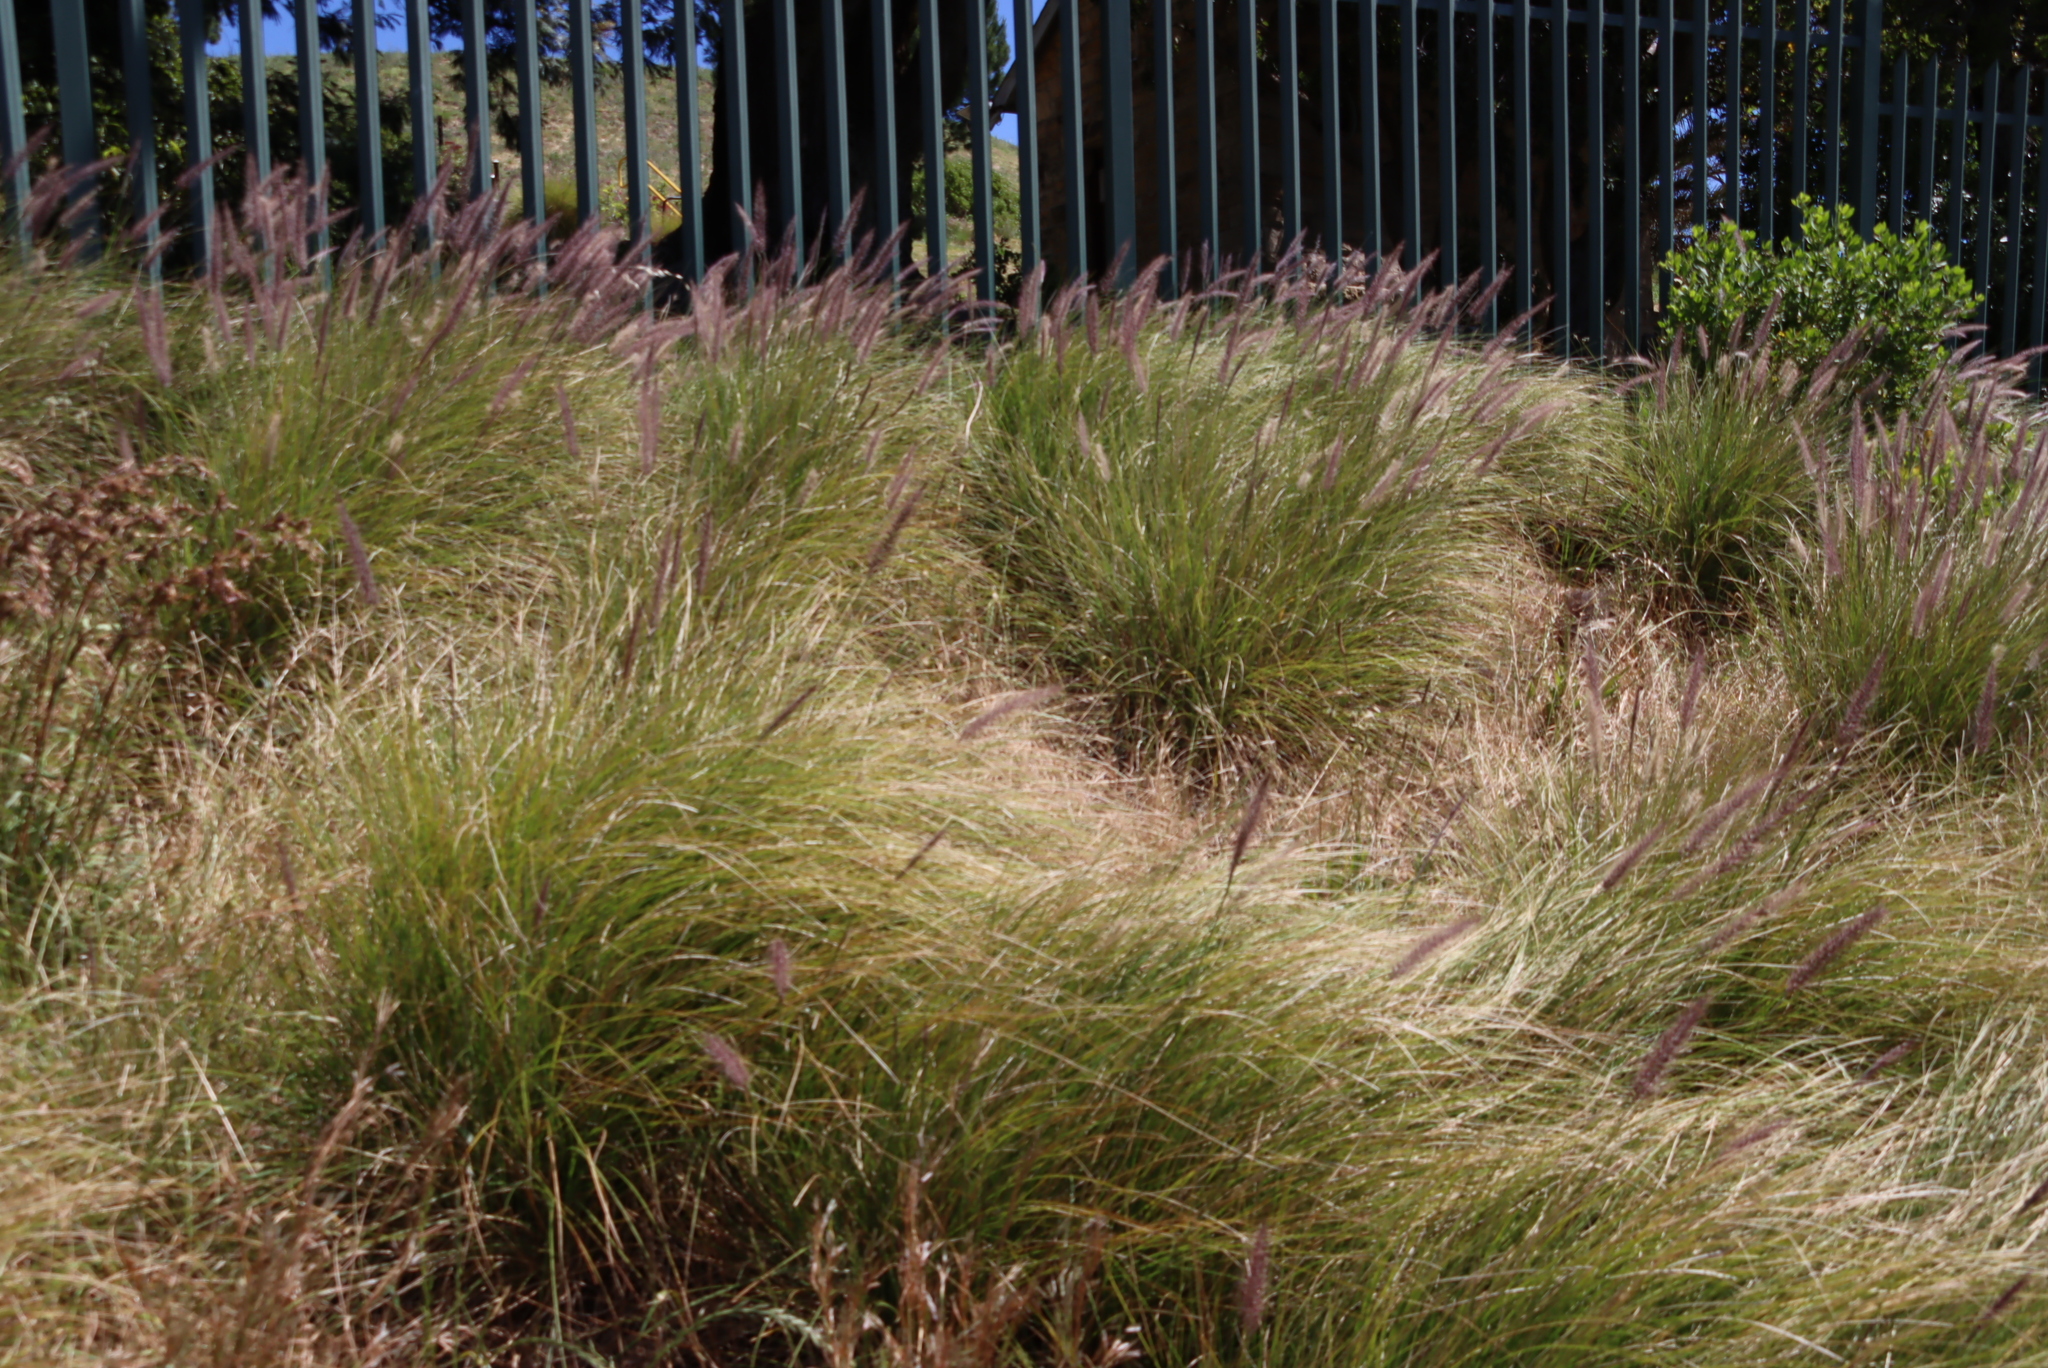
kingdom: Plantae
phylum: Tracheophyta
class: Liliopsida
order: Poales
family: Poaceae
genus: Cenchrus
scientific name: Cenchrus setaceus
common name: Crimson fountaingrass
